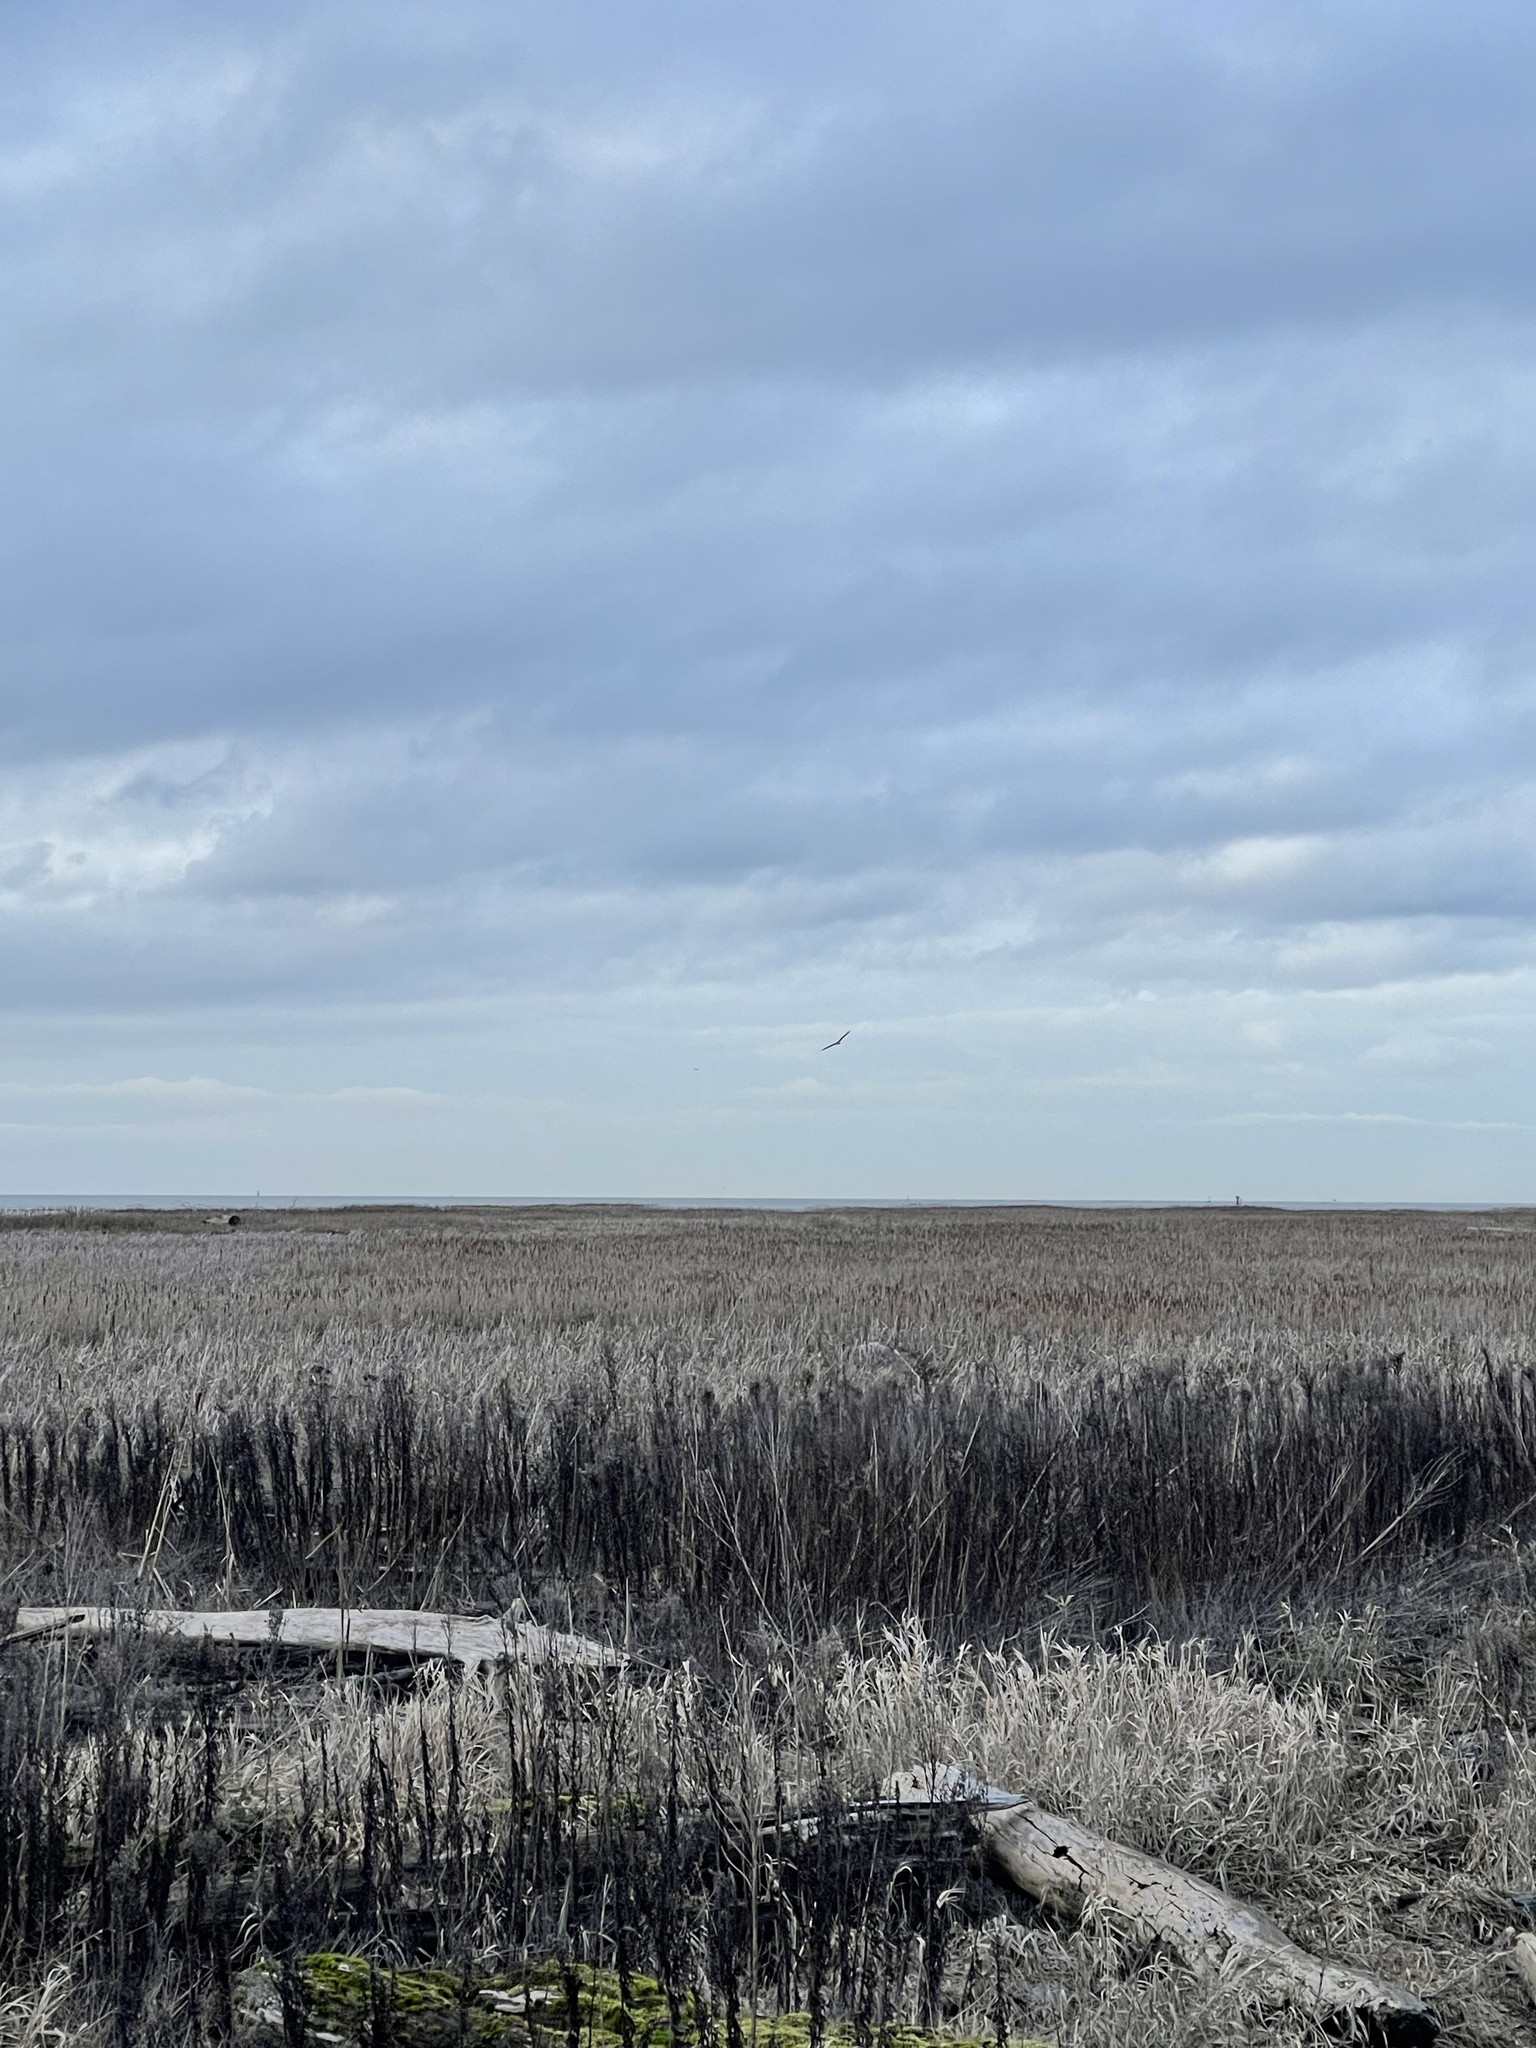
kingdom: Animalia
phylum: Chordata
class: Aves
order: Accipitriformes
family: Accipitridae
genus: Circus
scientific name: Circus cyaneus
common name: Hen harrier
